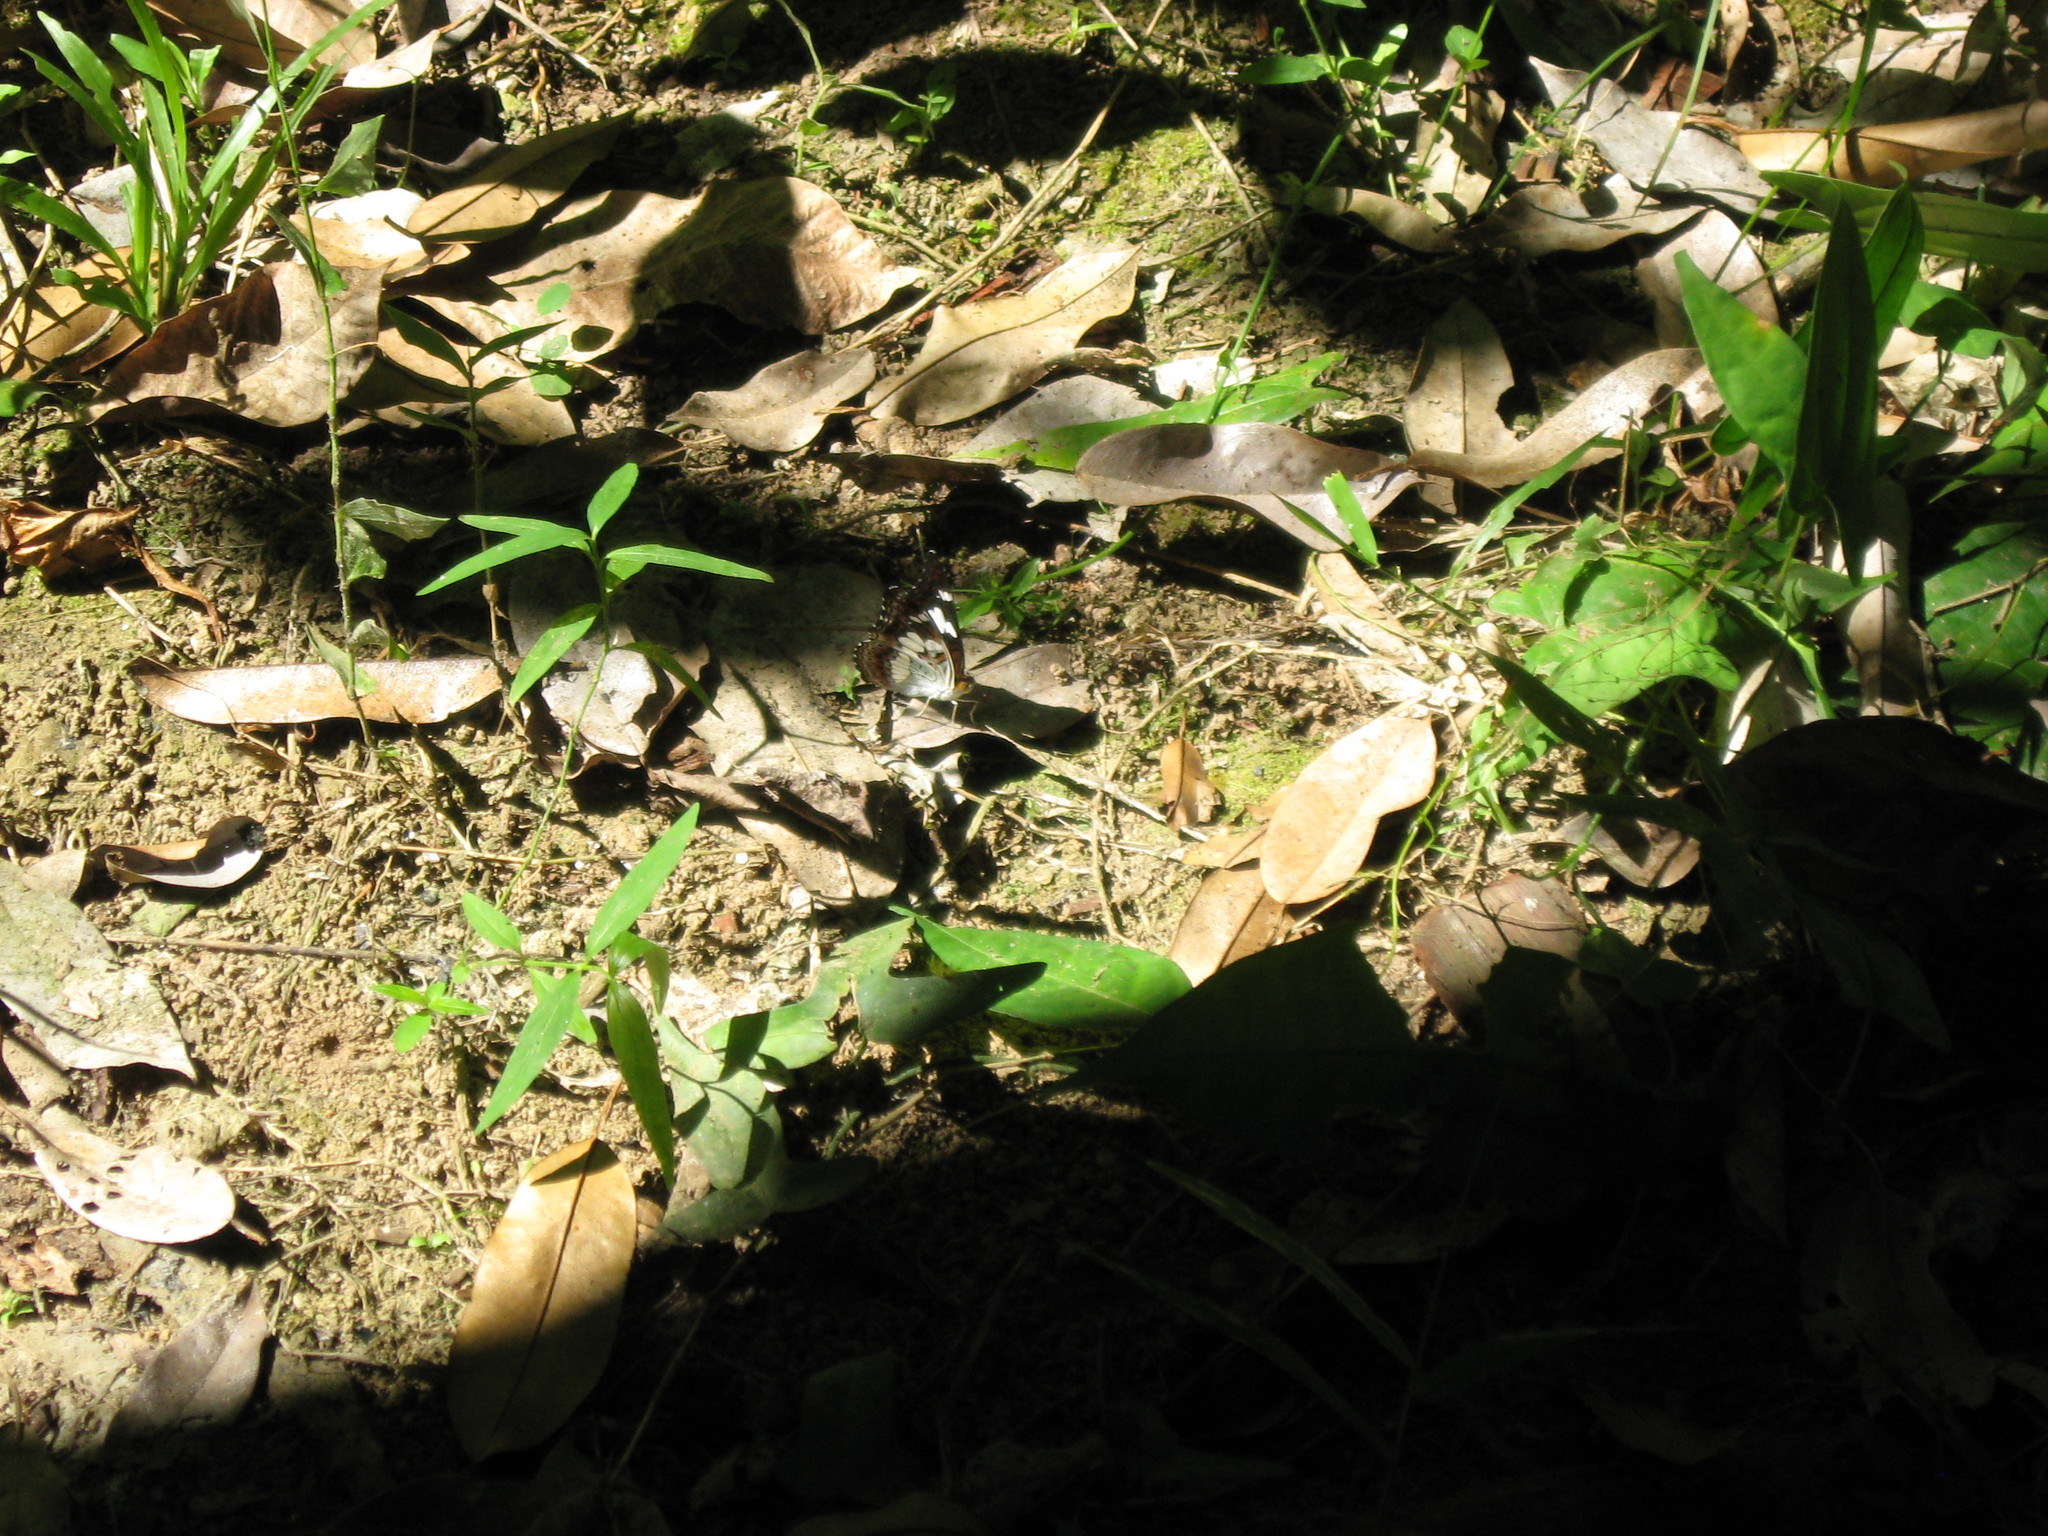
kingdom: Animalia
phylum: Arthropoda
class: Insecta
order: Lepidoptera
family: Nymphalidae
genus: Limenitis
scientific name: Limenitis Moduza procris
